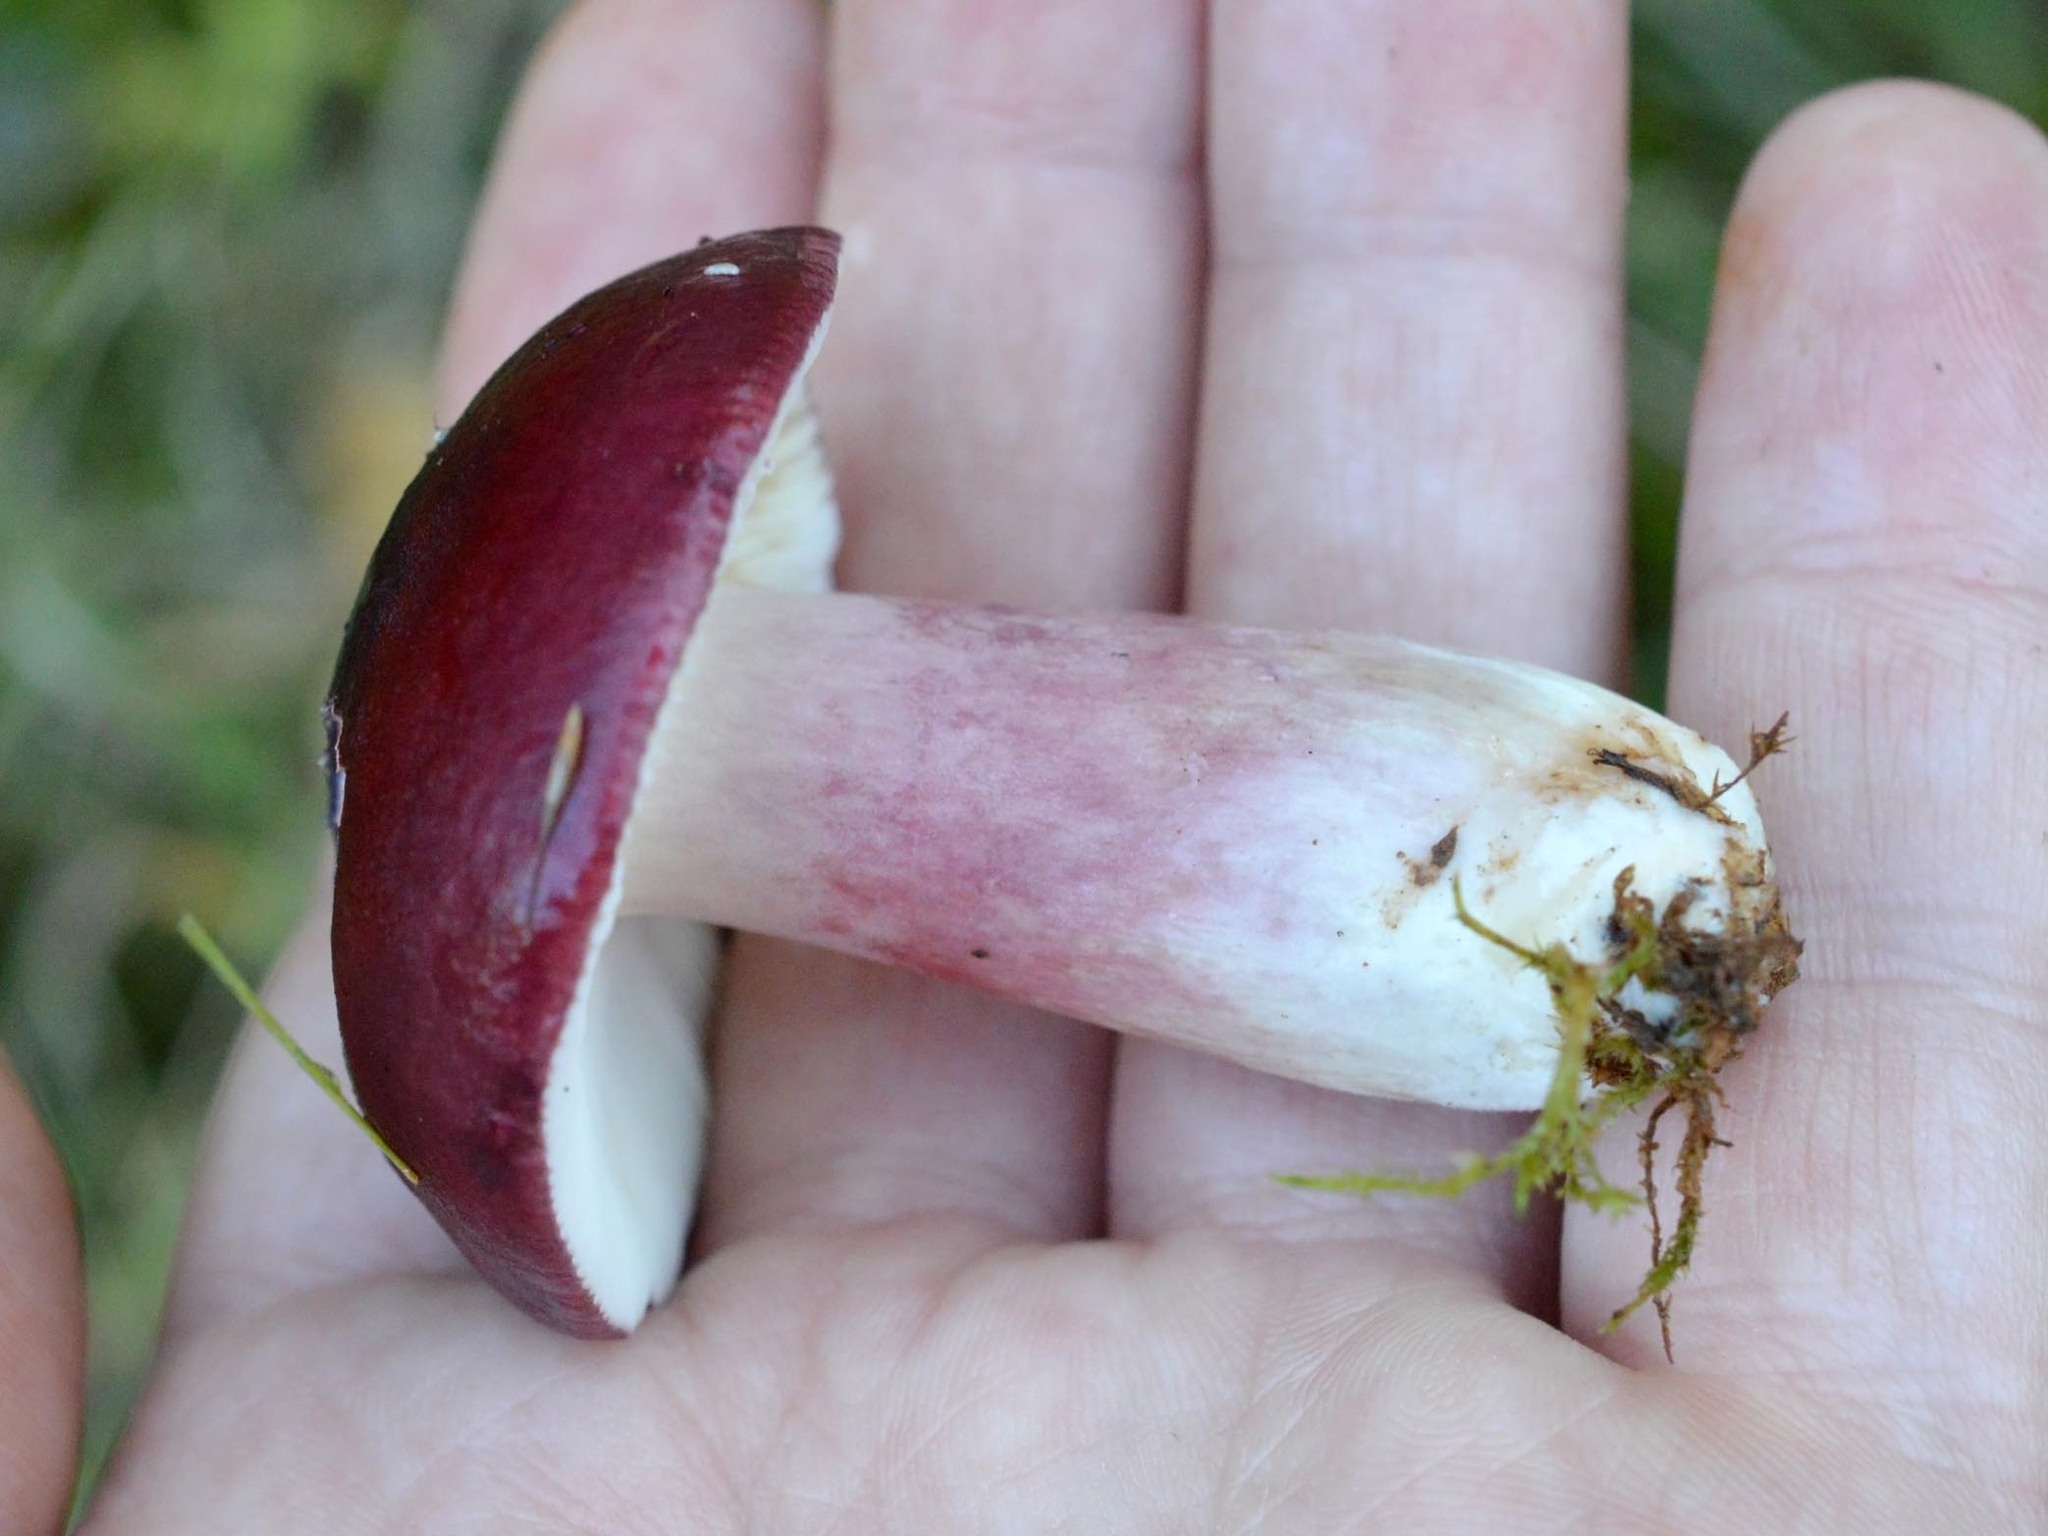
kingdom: Fungi
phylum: Basidiomycota
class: Agaricomycetes
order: Russulales
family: Russulaceae
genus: Russula
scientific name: Russula torulosa
